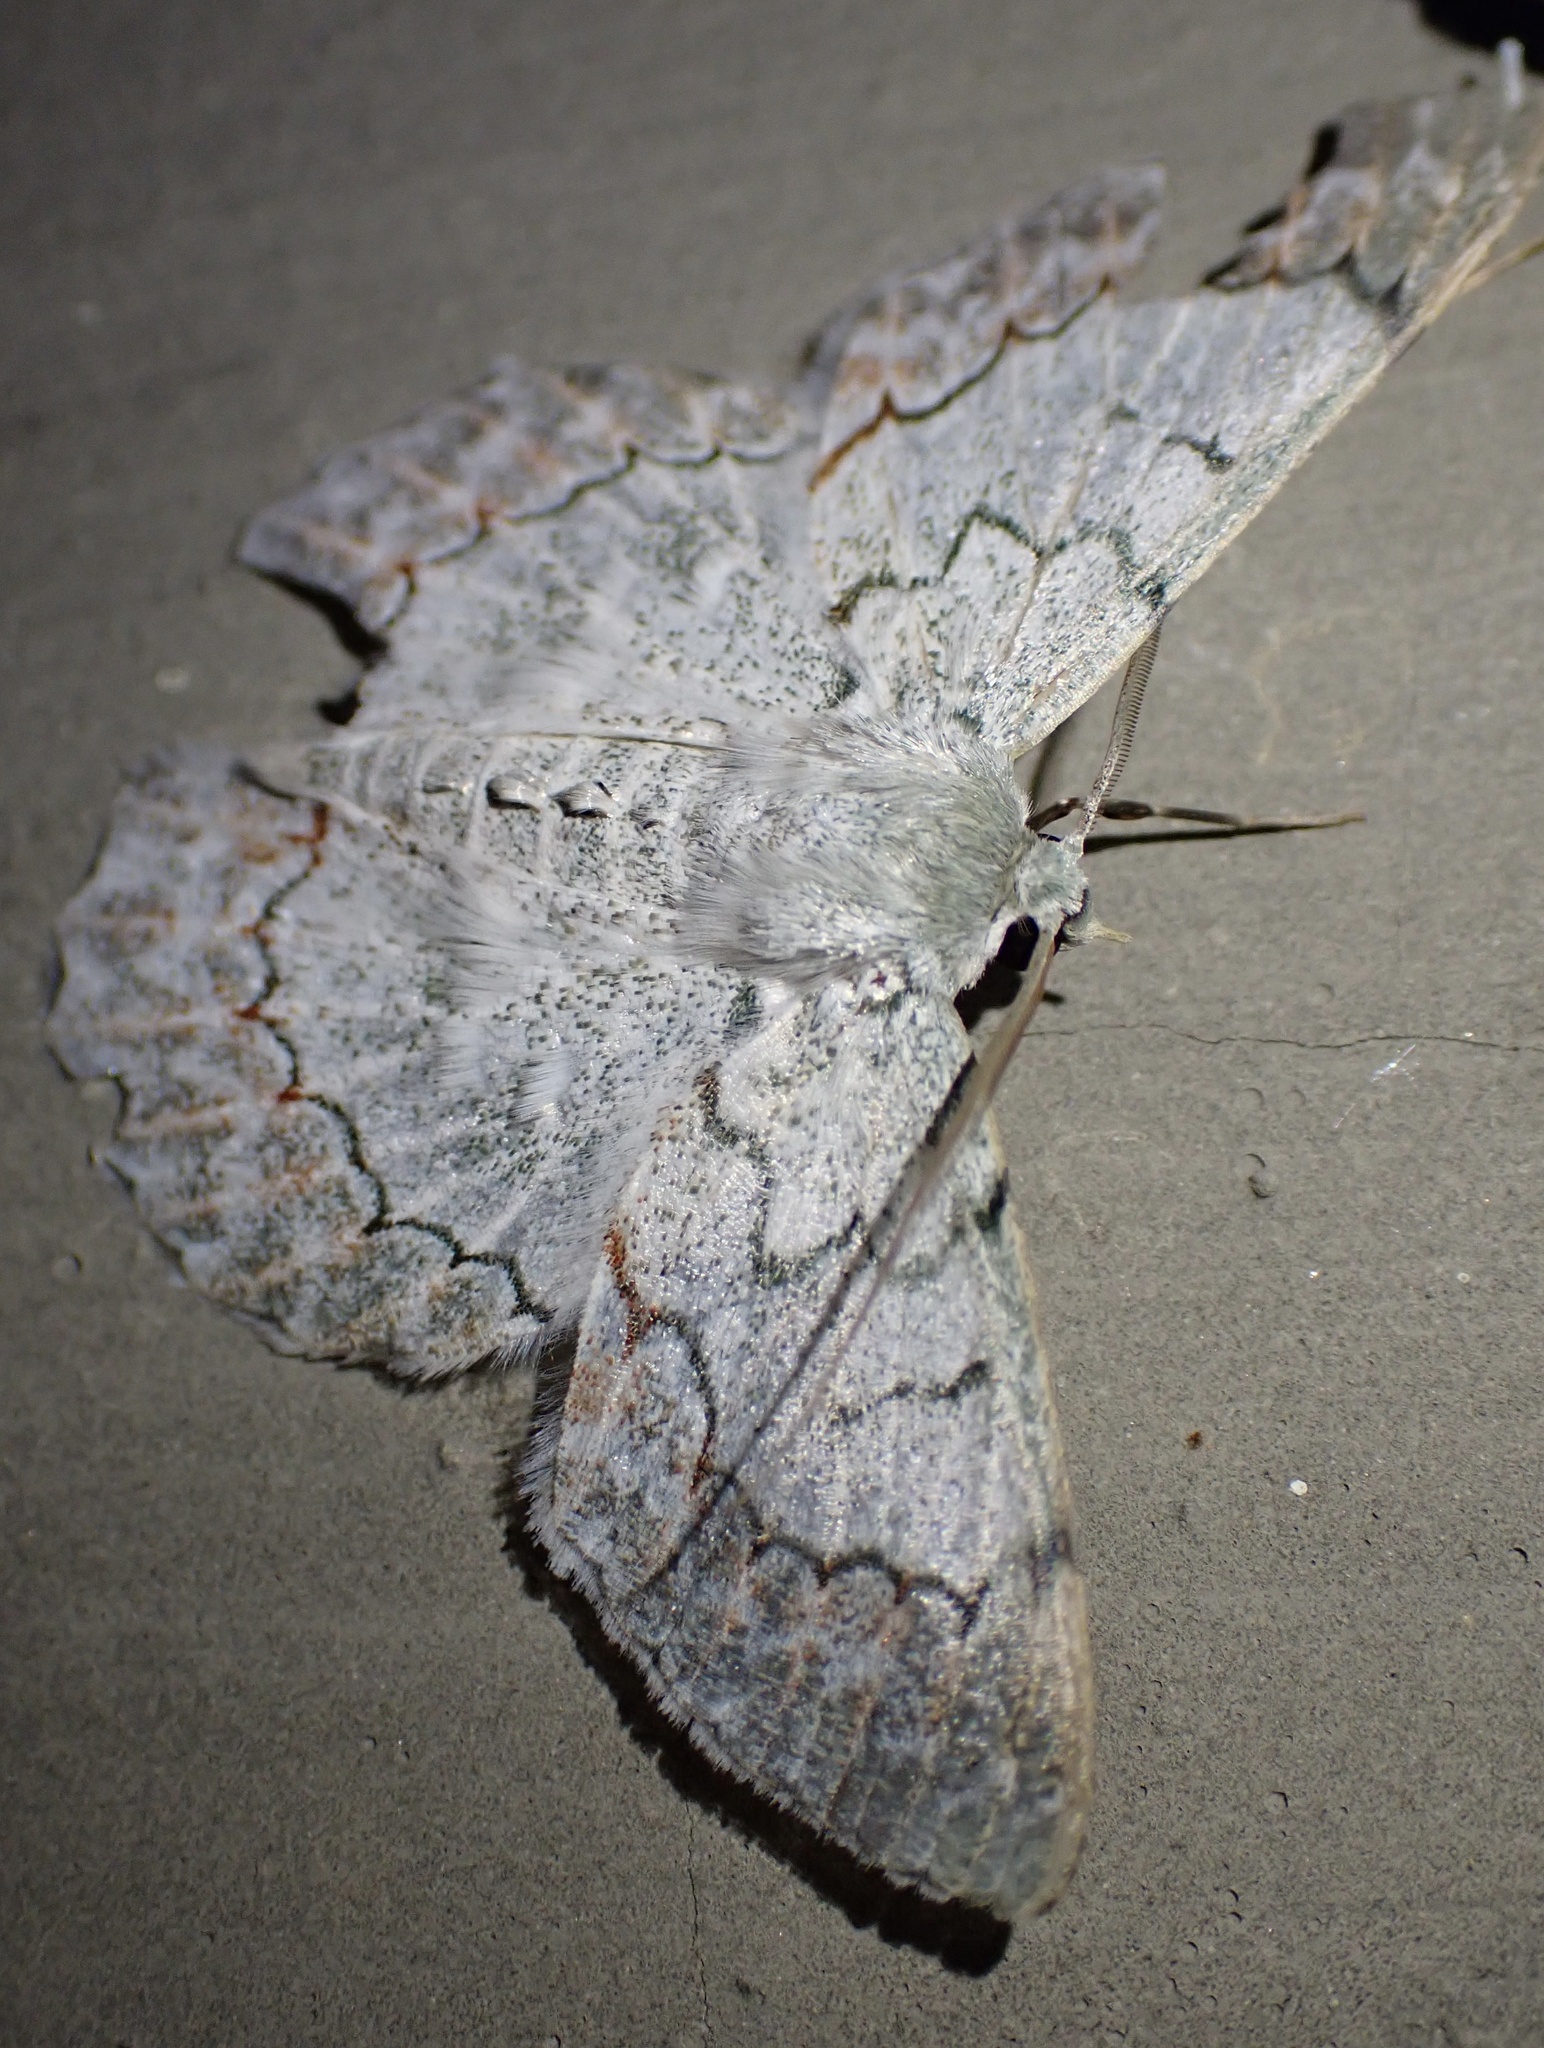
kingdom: Animalia
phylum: Arthropoda
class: Insecta
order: Lepidoptera
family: Geometridae
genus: Pingasa
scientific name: Pingasa chlora
